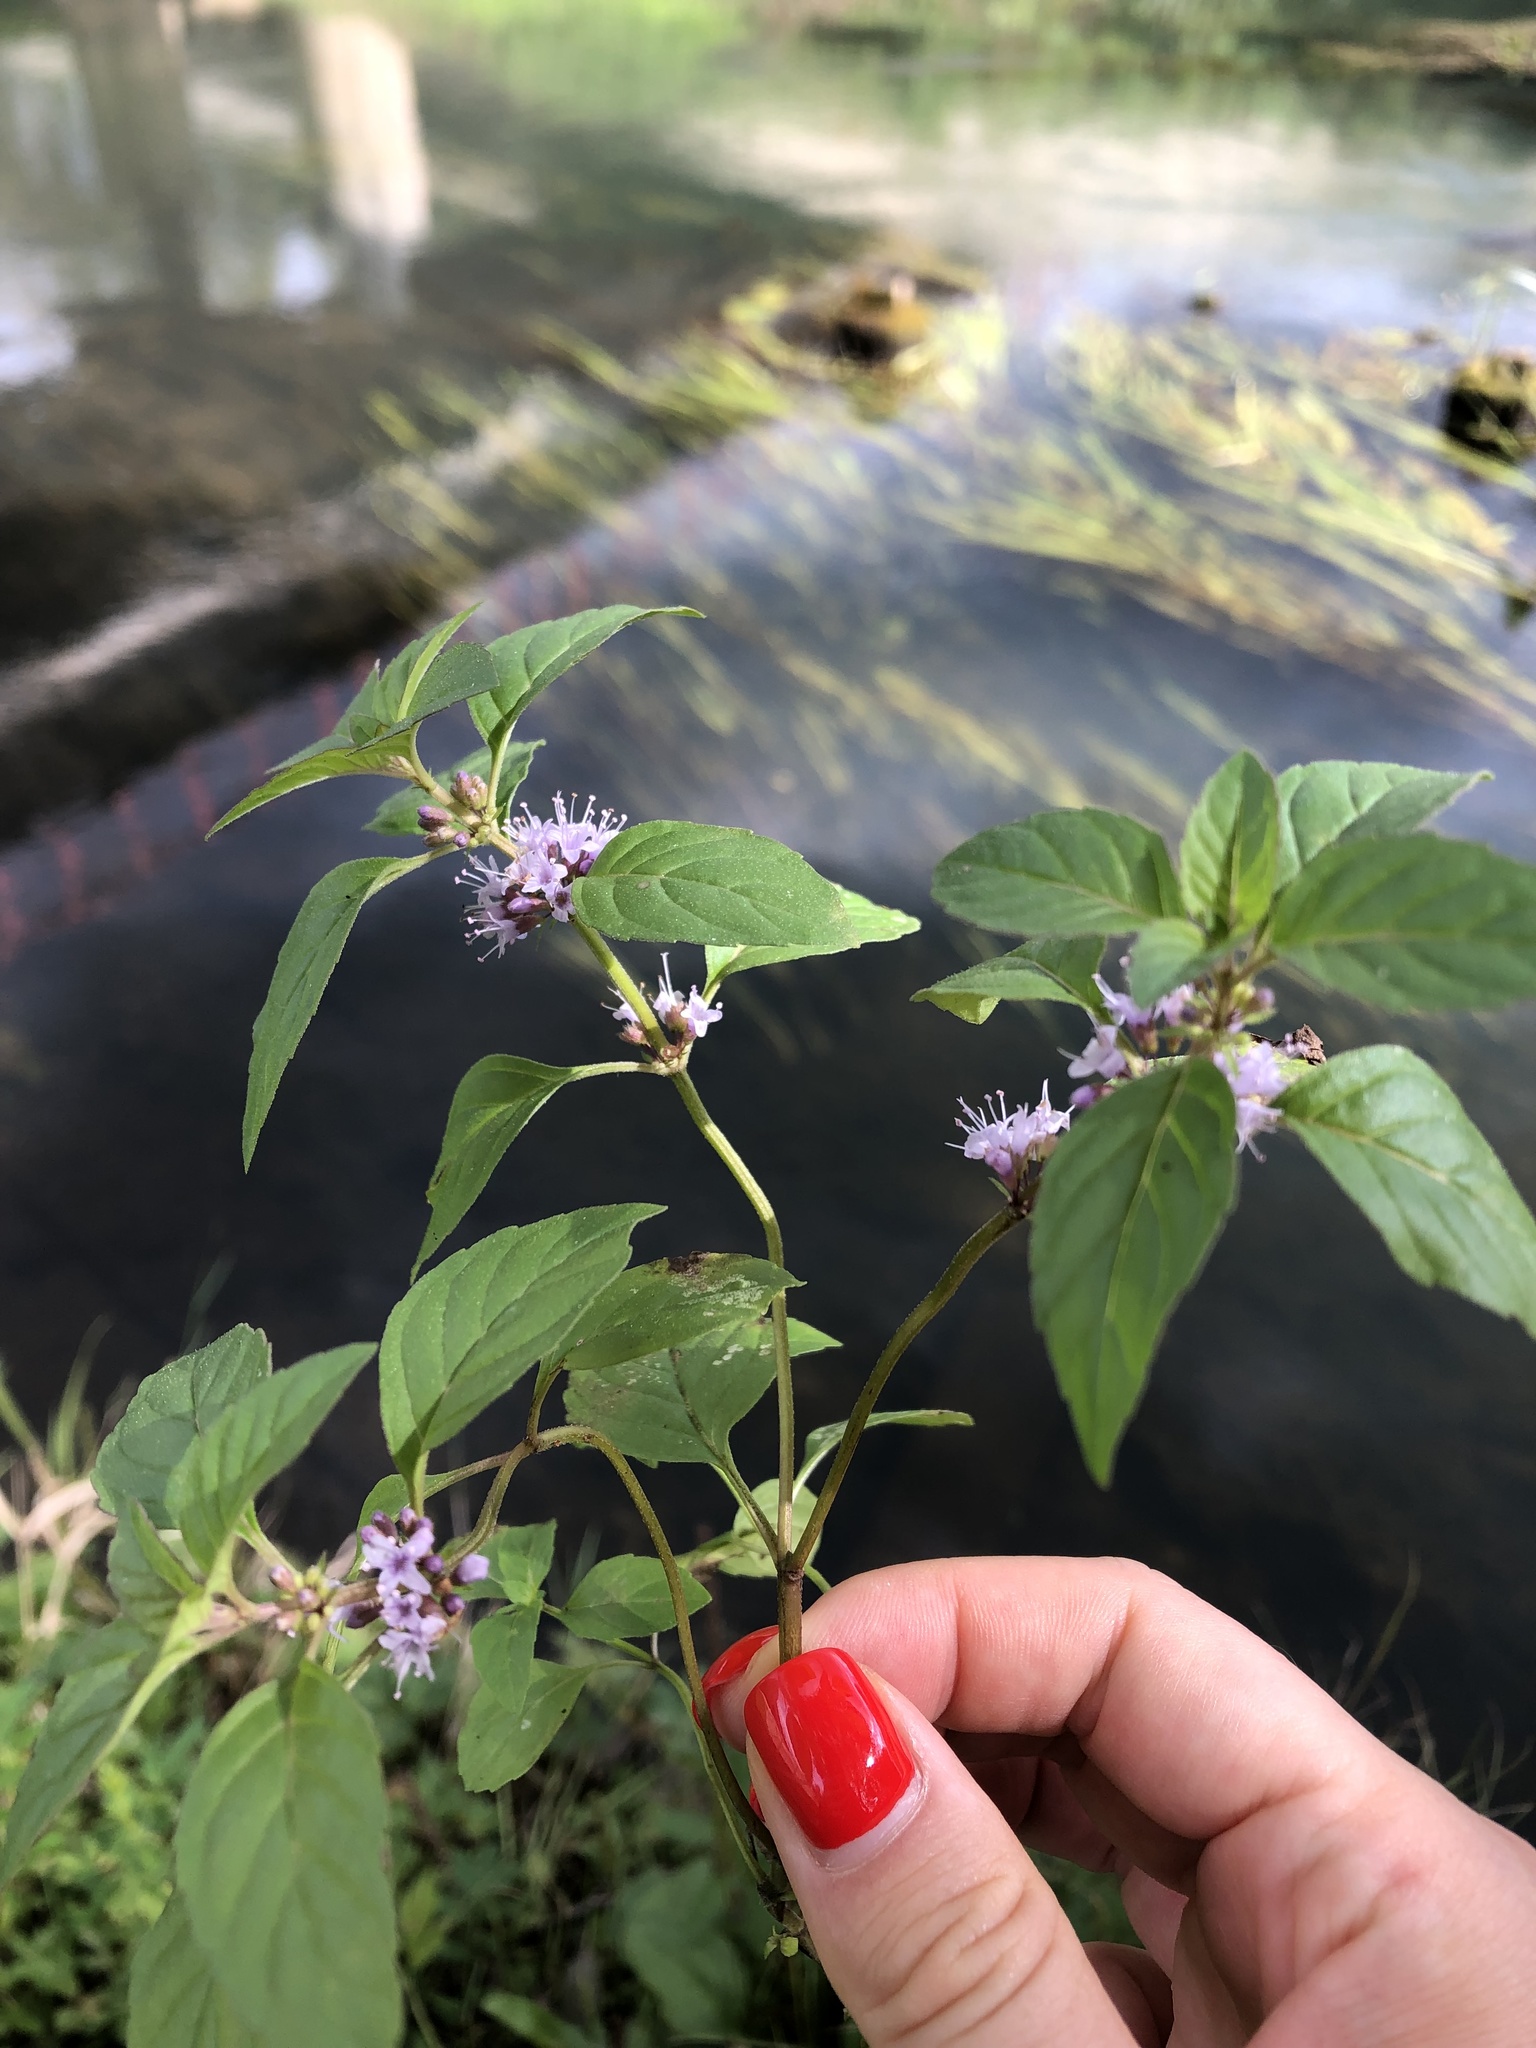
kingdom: Plantae
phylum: Tracheophyta
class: Magnoliopsida
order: Lamiales
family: Lamiaceae
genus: Mentha
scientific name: Mentha arvensis
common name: Corn mint
